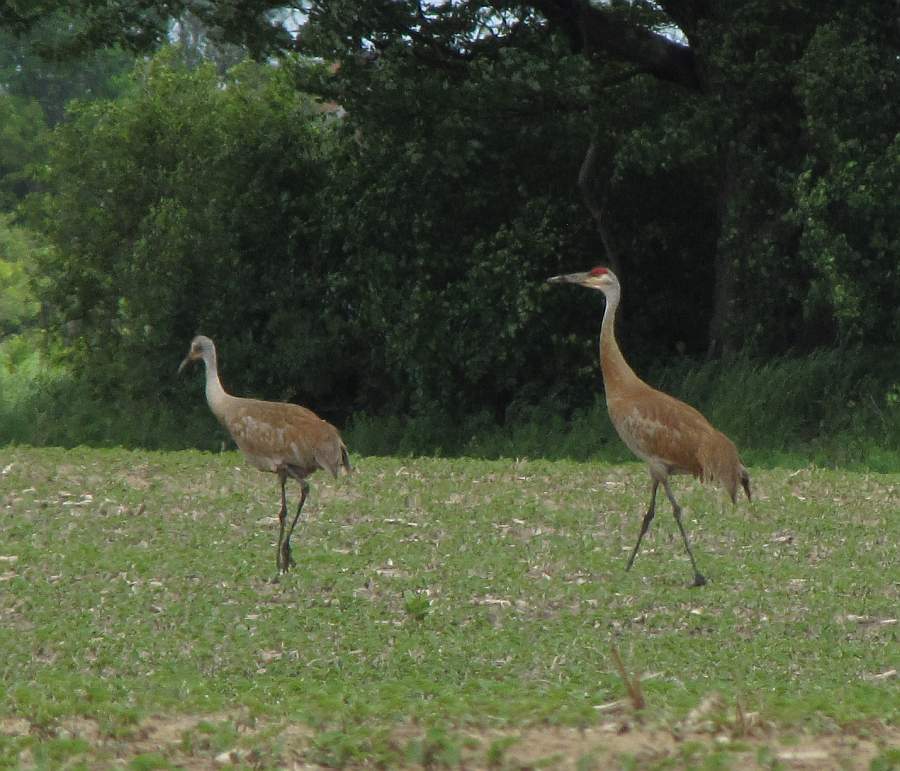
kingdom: Animalia
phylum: Chordata
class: Aves
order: Gruiformes
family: Gruidae
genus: Grus
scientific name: Grus canadensis
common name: Sandhill crane
